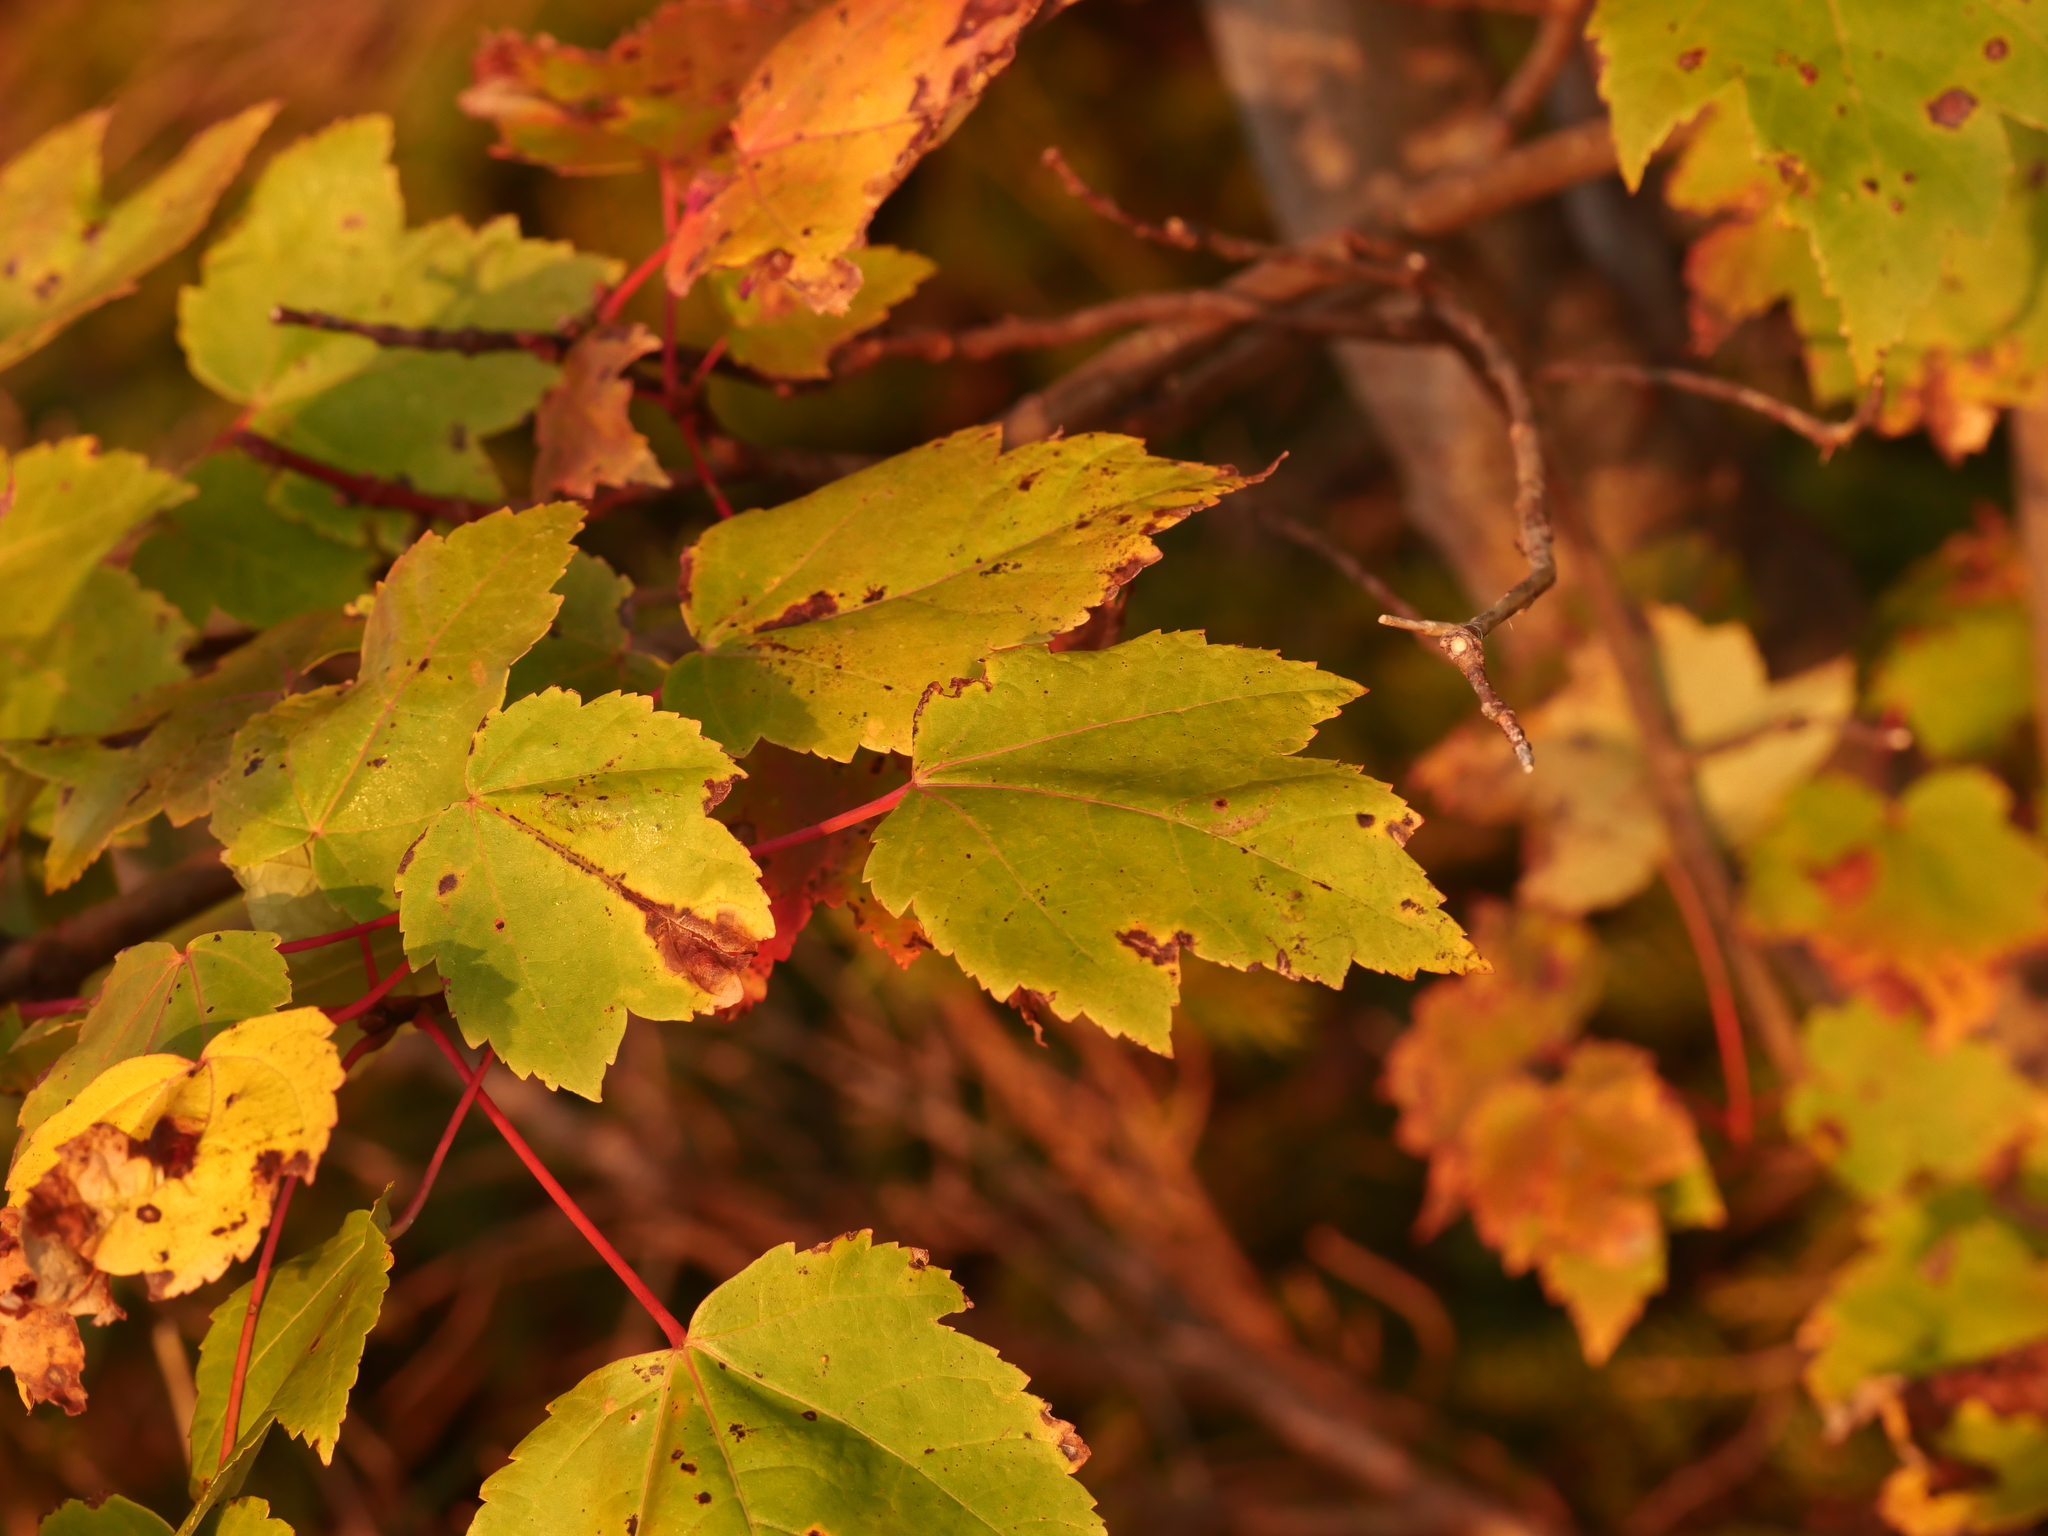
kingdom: Plantae
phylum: Tracheophyta
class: Magnoliopsida
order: Sapindales
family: Sapindaceae
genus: Acer
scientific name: Acer rubrum
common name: Red maple
